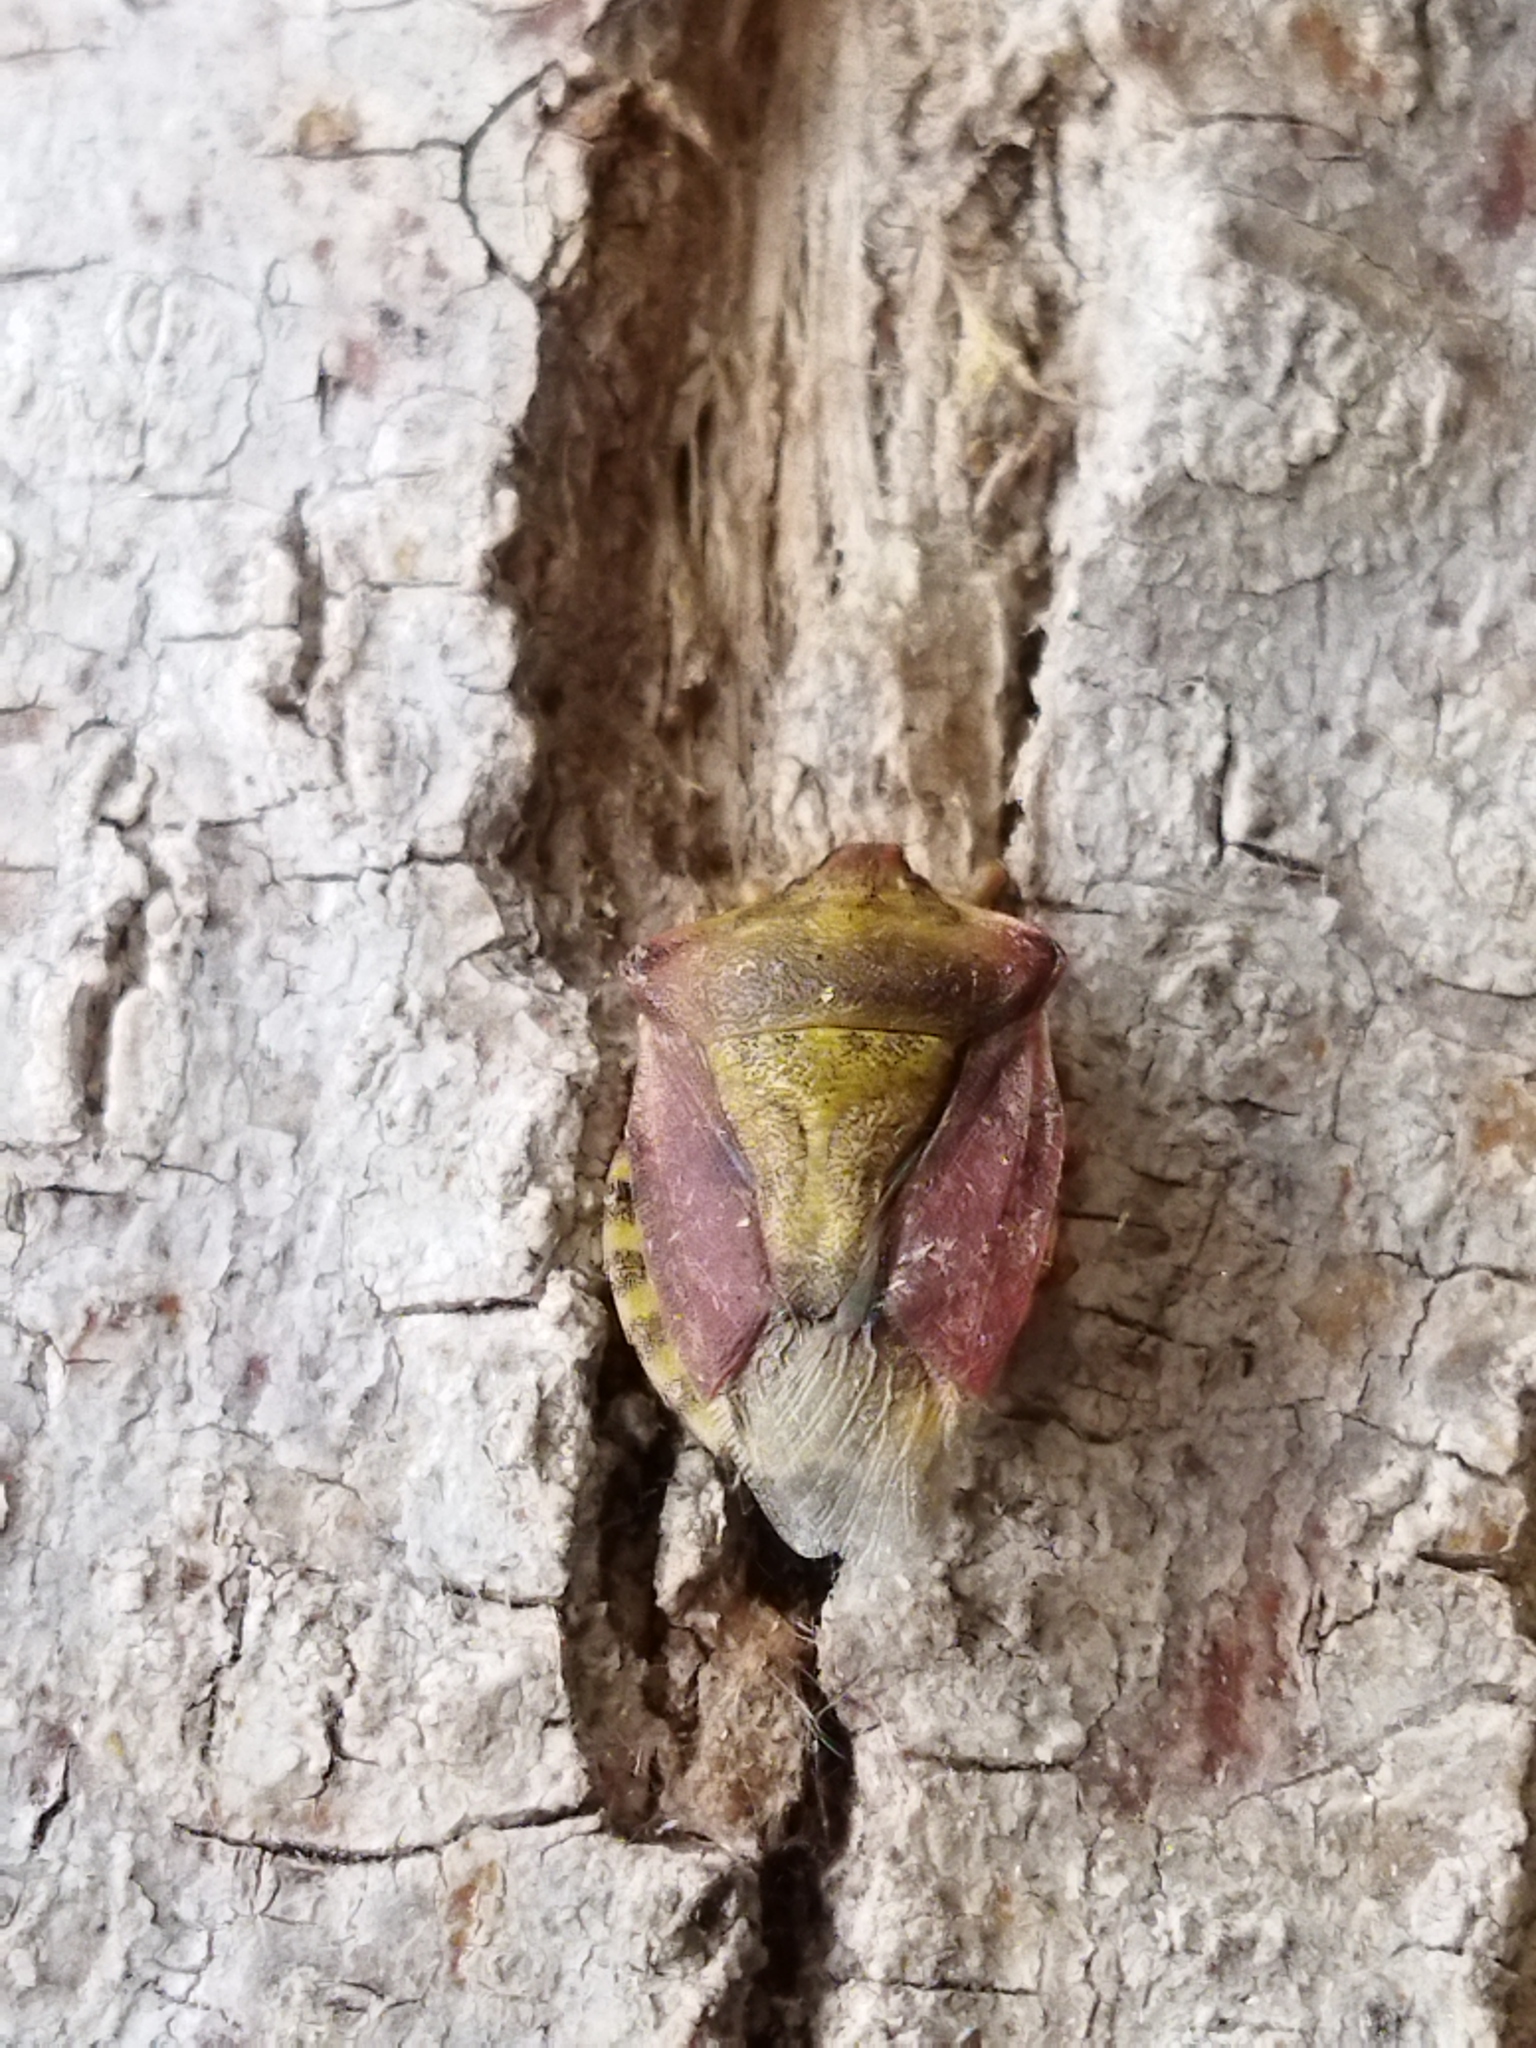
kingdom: Animalia
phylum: Arthropoda
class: Insecta
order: Hemiptera
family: Pentatomidae
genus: Carpocoris
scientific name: Carpocoris purpureipennis
